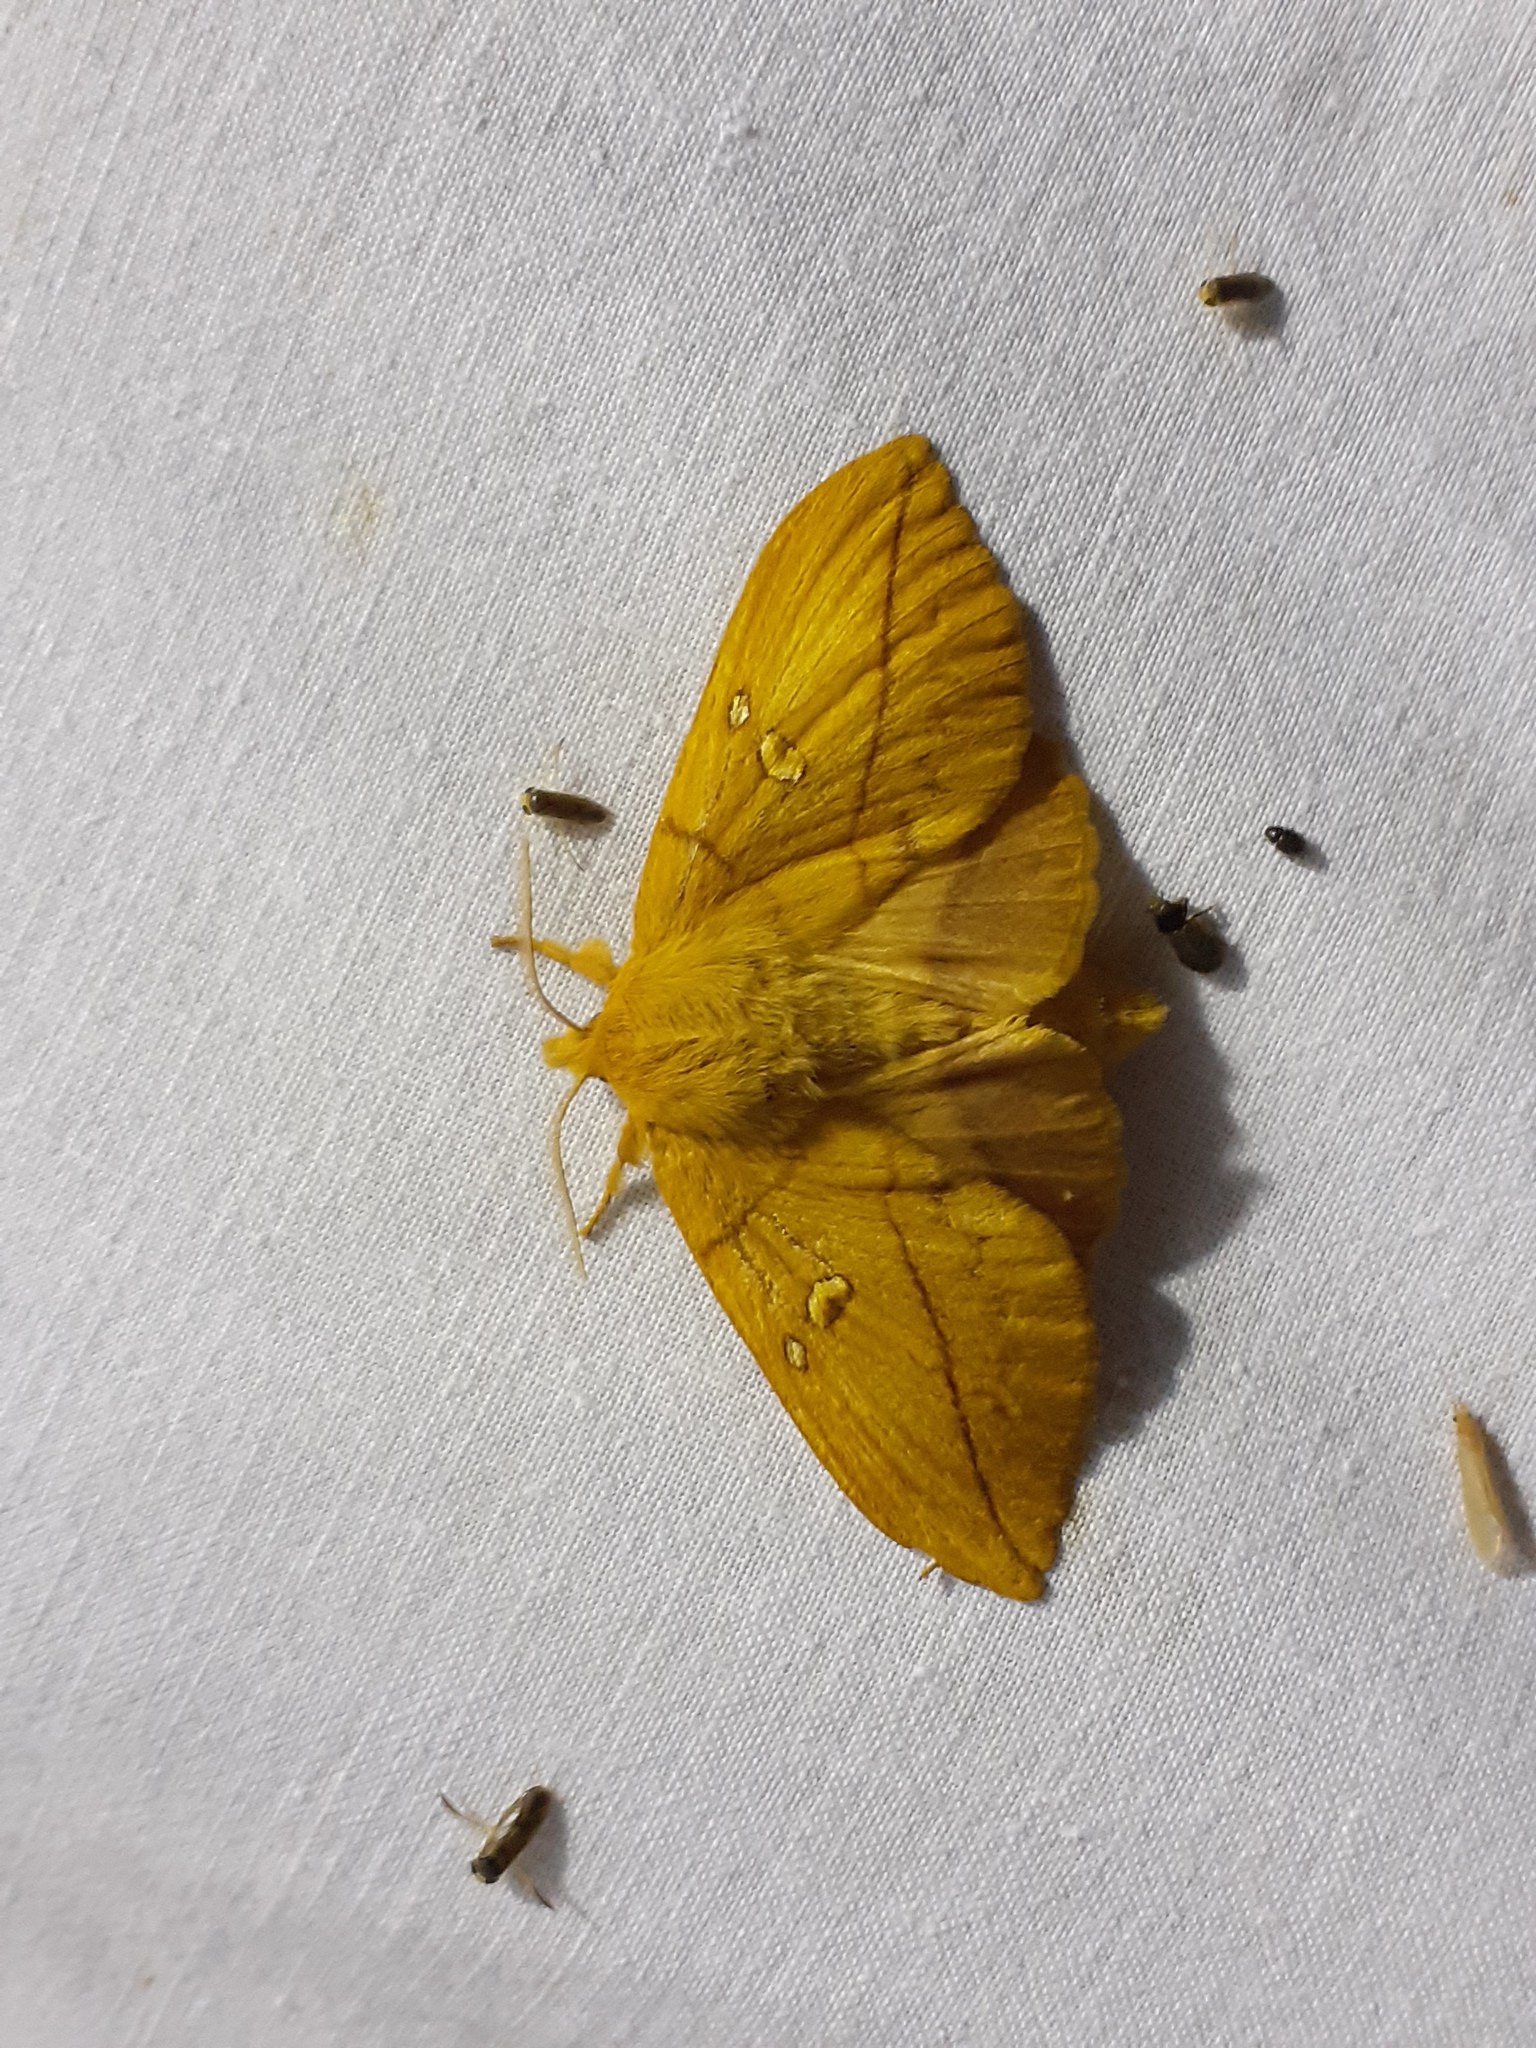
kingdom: Animalia
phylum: Arthropoda
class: Insecta
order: Lepidoptera
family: Lasiocampidae
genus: Euthrix
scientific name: Euthrix potatoria
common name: Drinker
